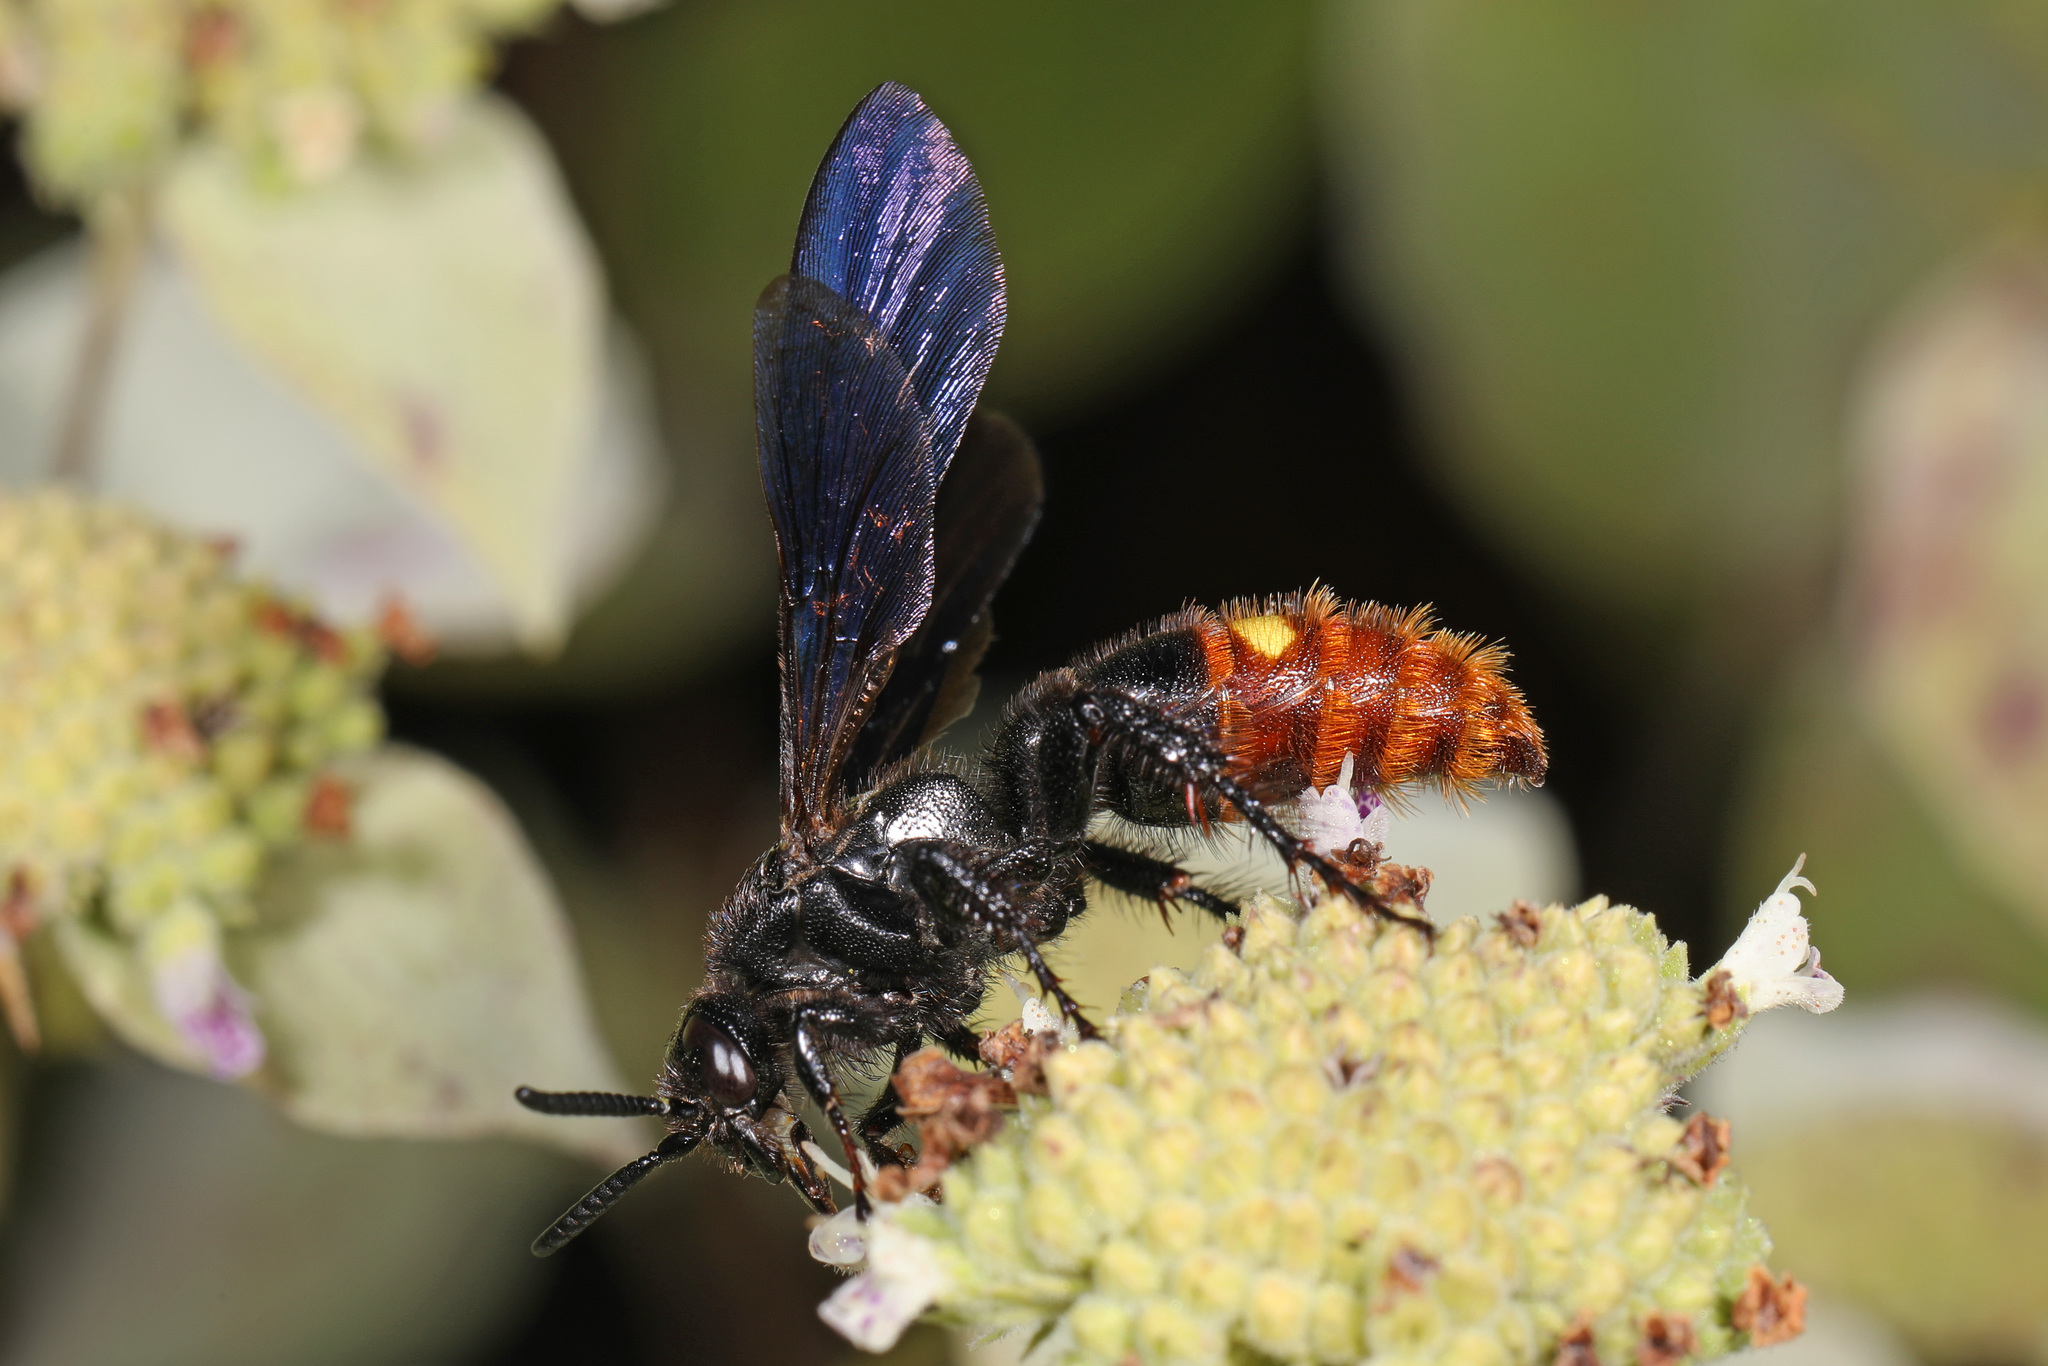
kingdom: Animalia
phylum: Arthropoda
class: Insecta
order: Hymenoptera
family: Scoliidae
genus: Scolia
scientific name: Scolia dubia
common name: Blue-winged scoliid wasp
